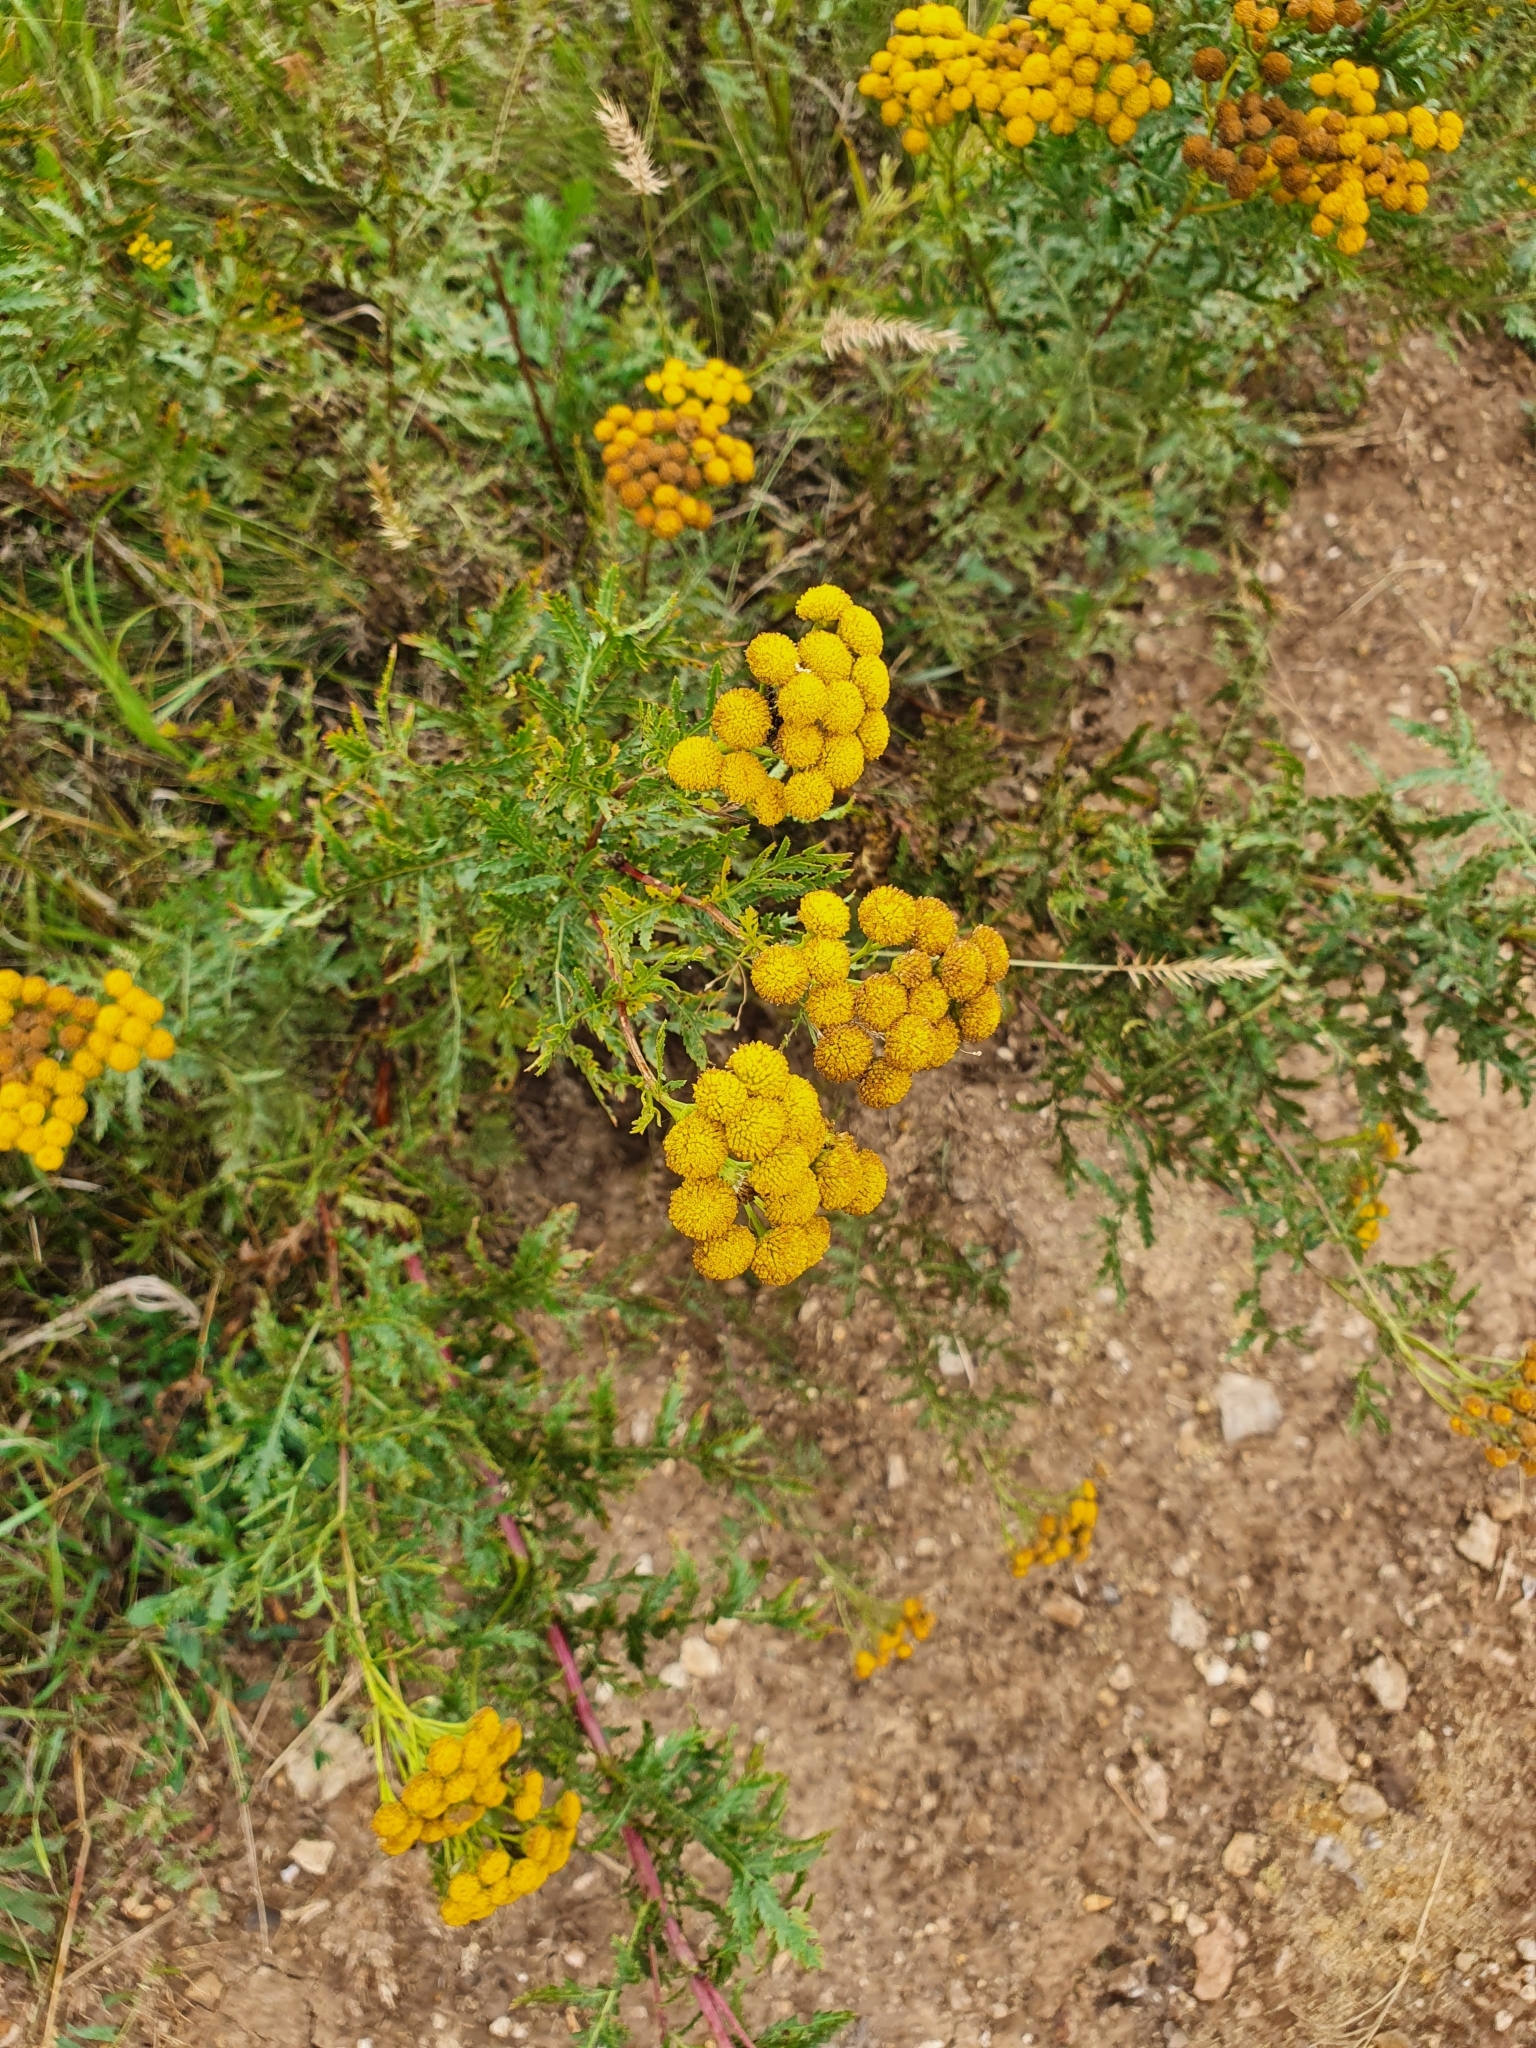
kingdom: Plantae
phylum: Tracheophyta
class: Magnoliopsida
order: Asterales
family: Asteraceae
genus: Tanacetum
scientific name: Tanacetum vulgare
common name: Common tansy
